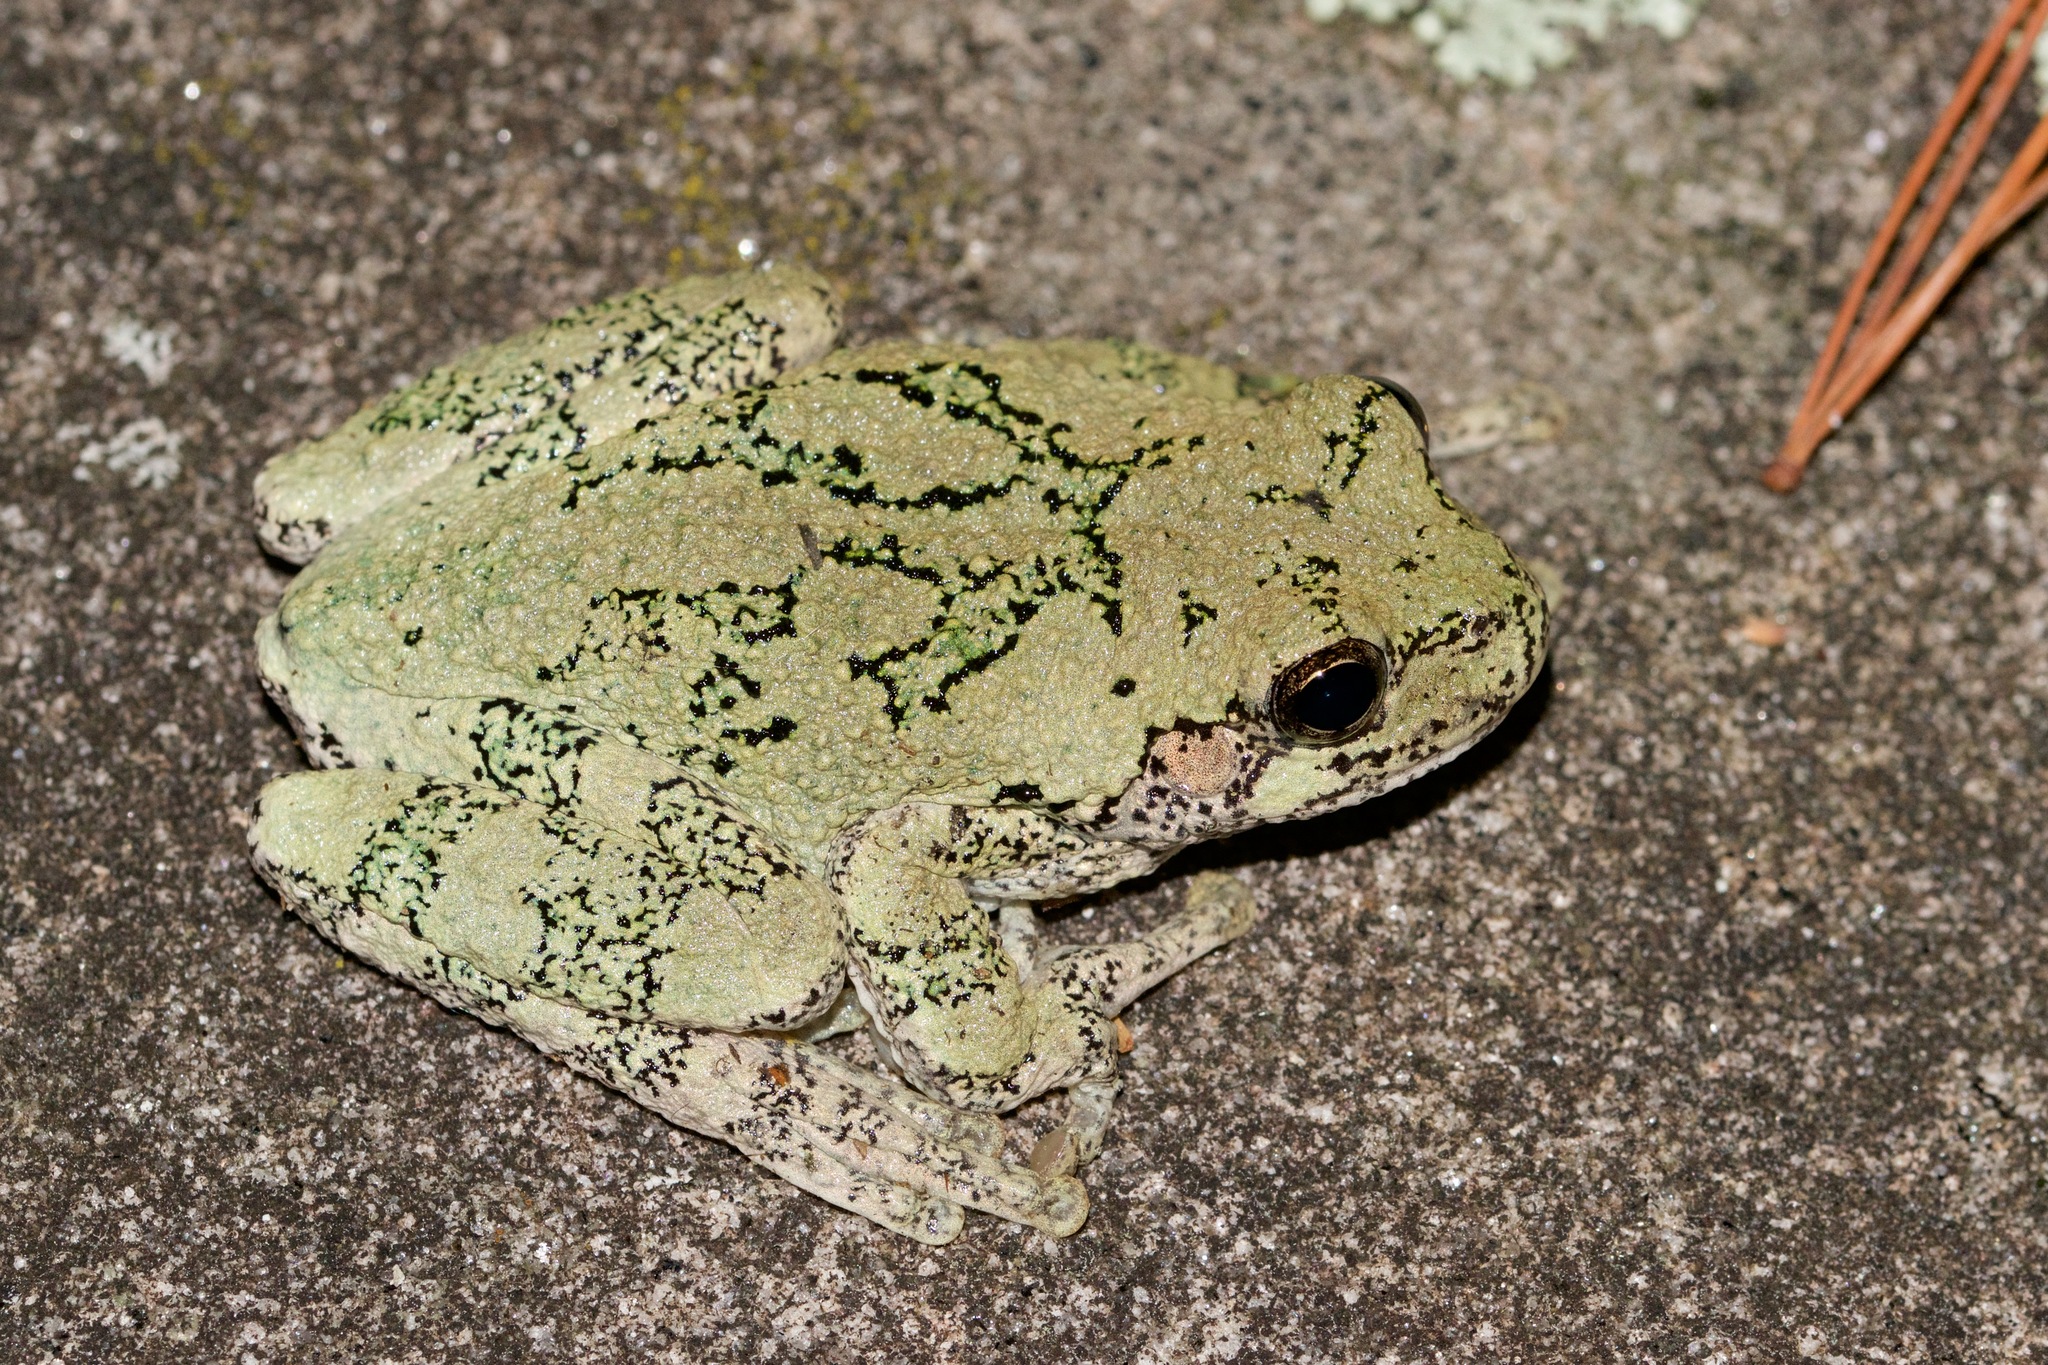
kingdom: Animalia
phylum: Chordata
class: Amphibia
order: Anura
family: Hylidae
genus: Dryophytes
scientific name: Dryophytes versicolor
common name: Gray treefrog
